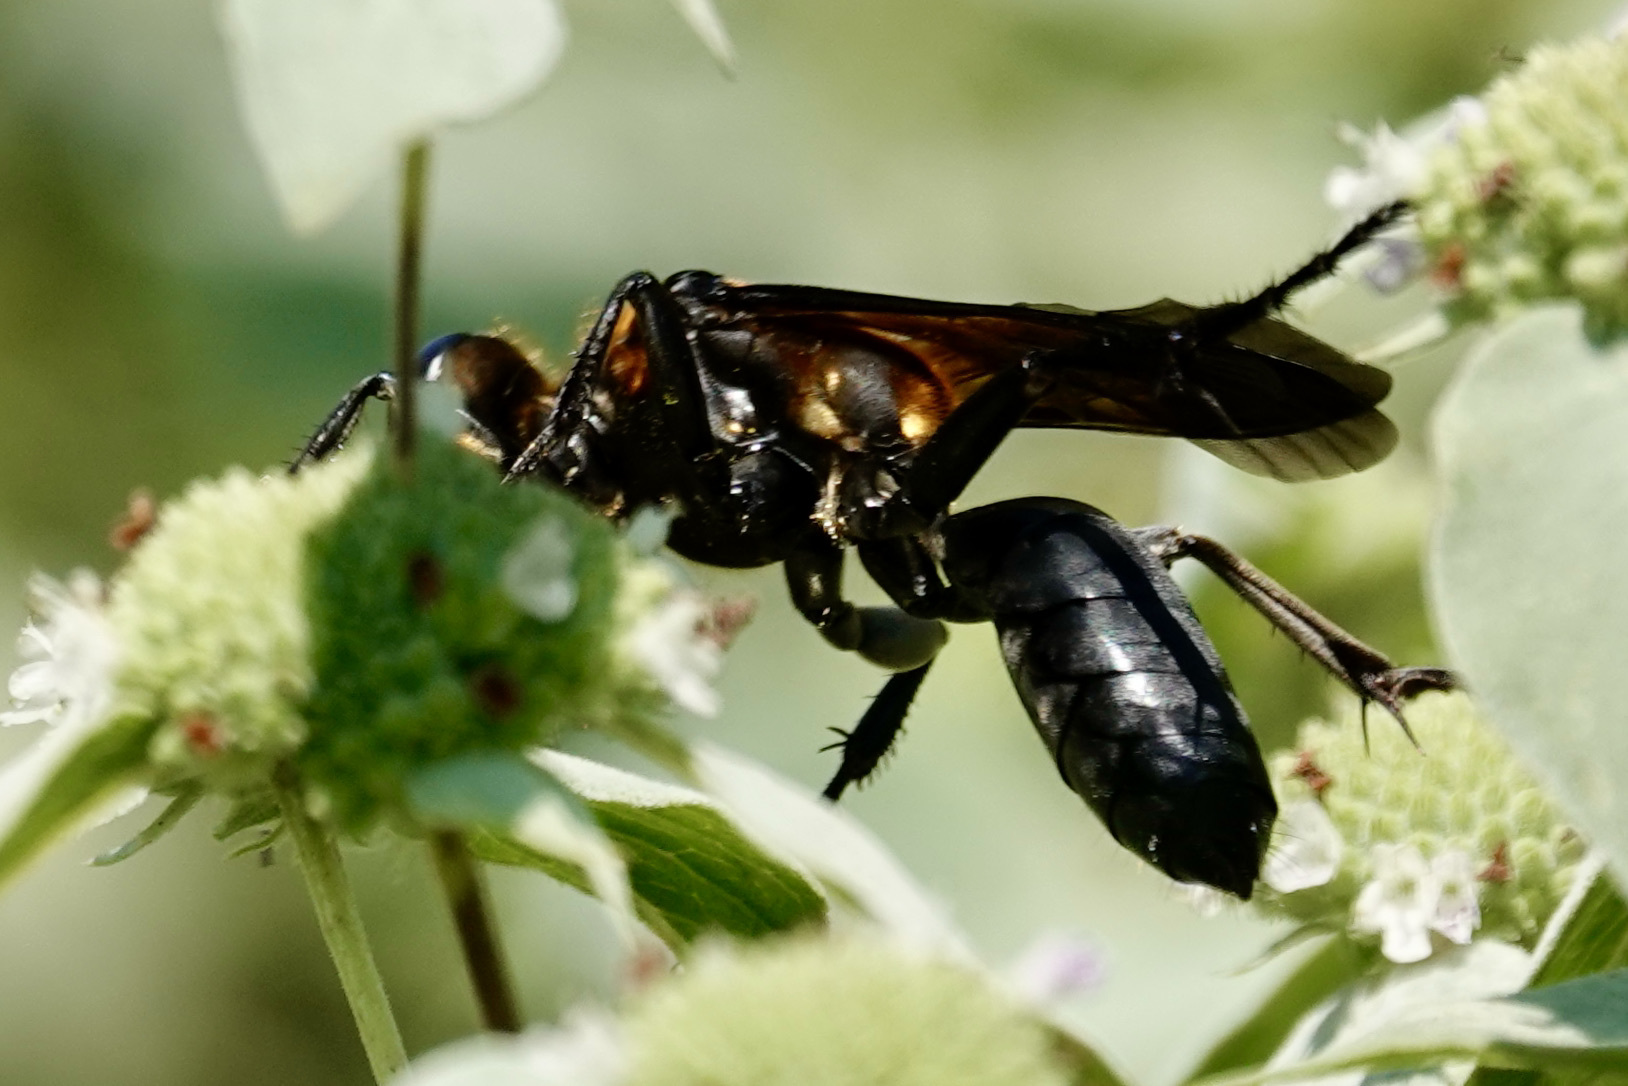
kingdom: Animalia
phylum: Arthropoda
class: Insecta
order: Hymenoptera
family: Sphecidae
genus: Sphex
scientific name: Sphex habenus
